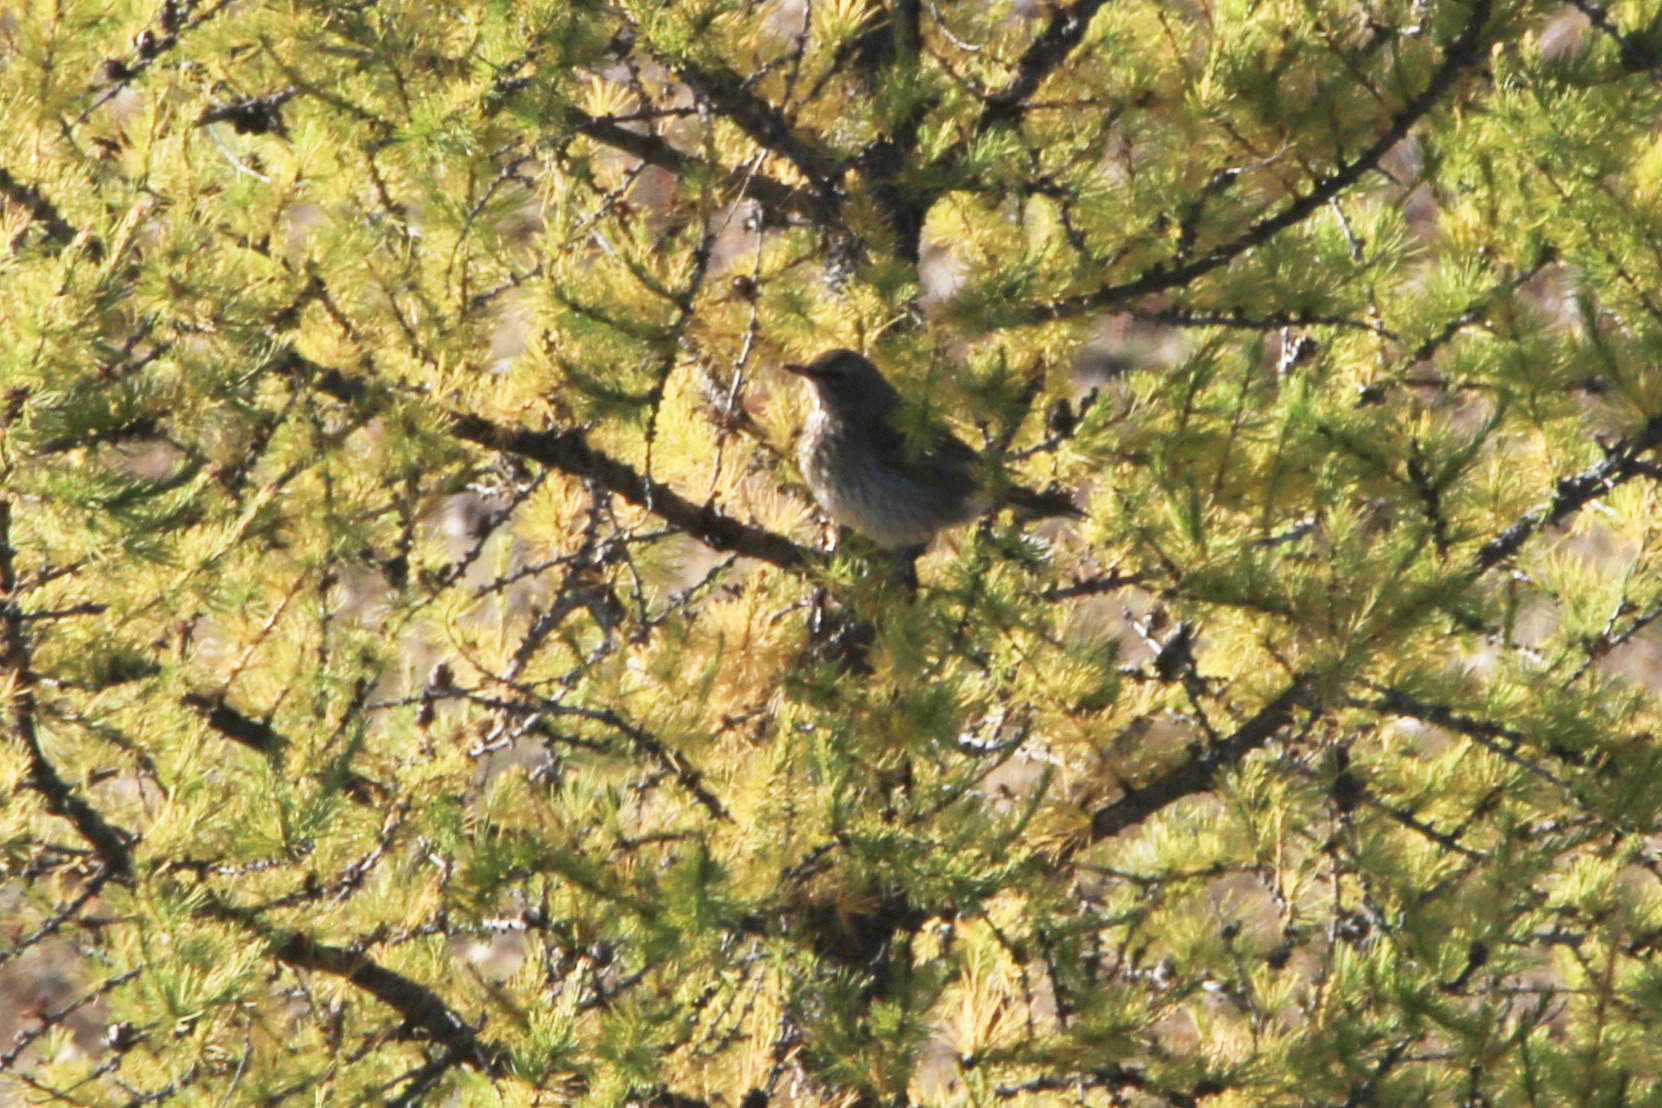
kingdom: Animalia
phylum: Chordata
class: Aves
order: Passeriformes
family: Turdidae
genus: Turdus
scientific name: Turdus atrogularis
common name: Black-throated thrush
